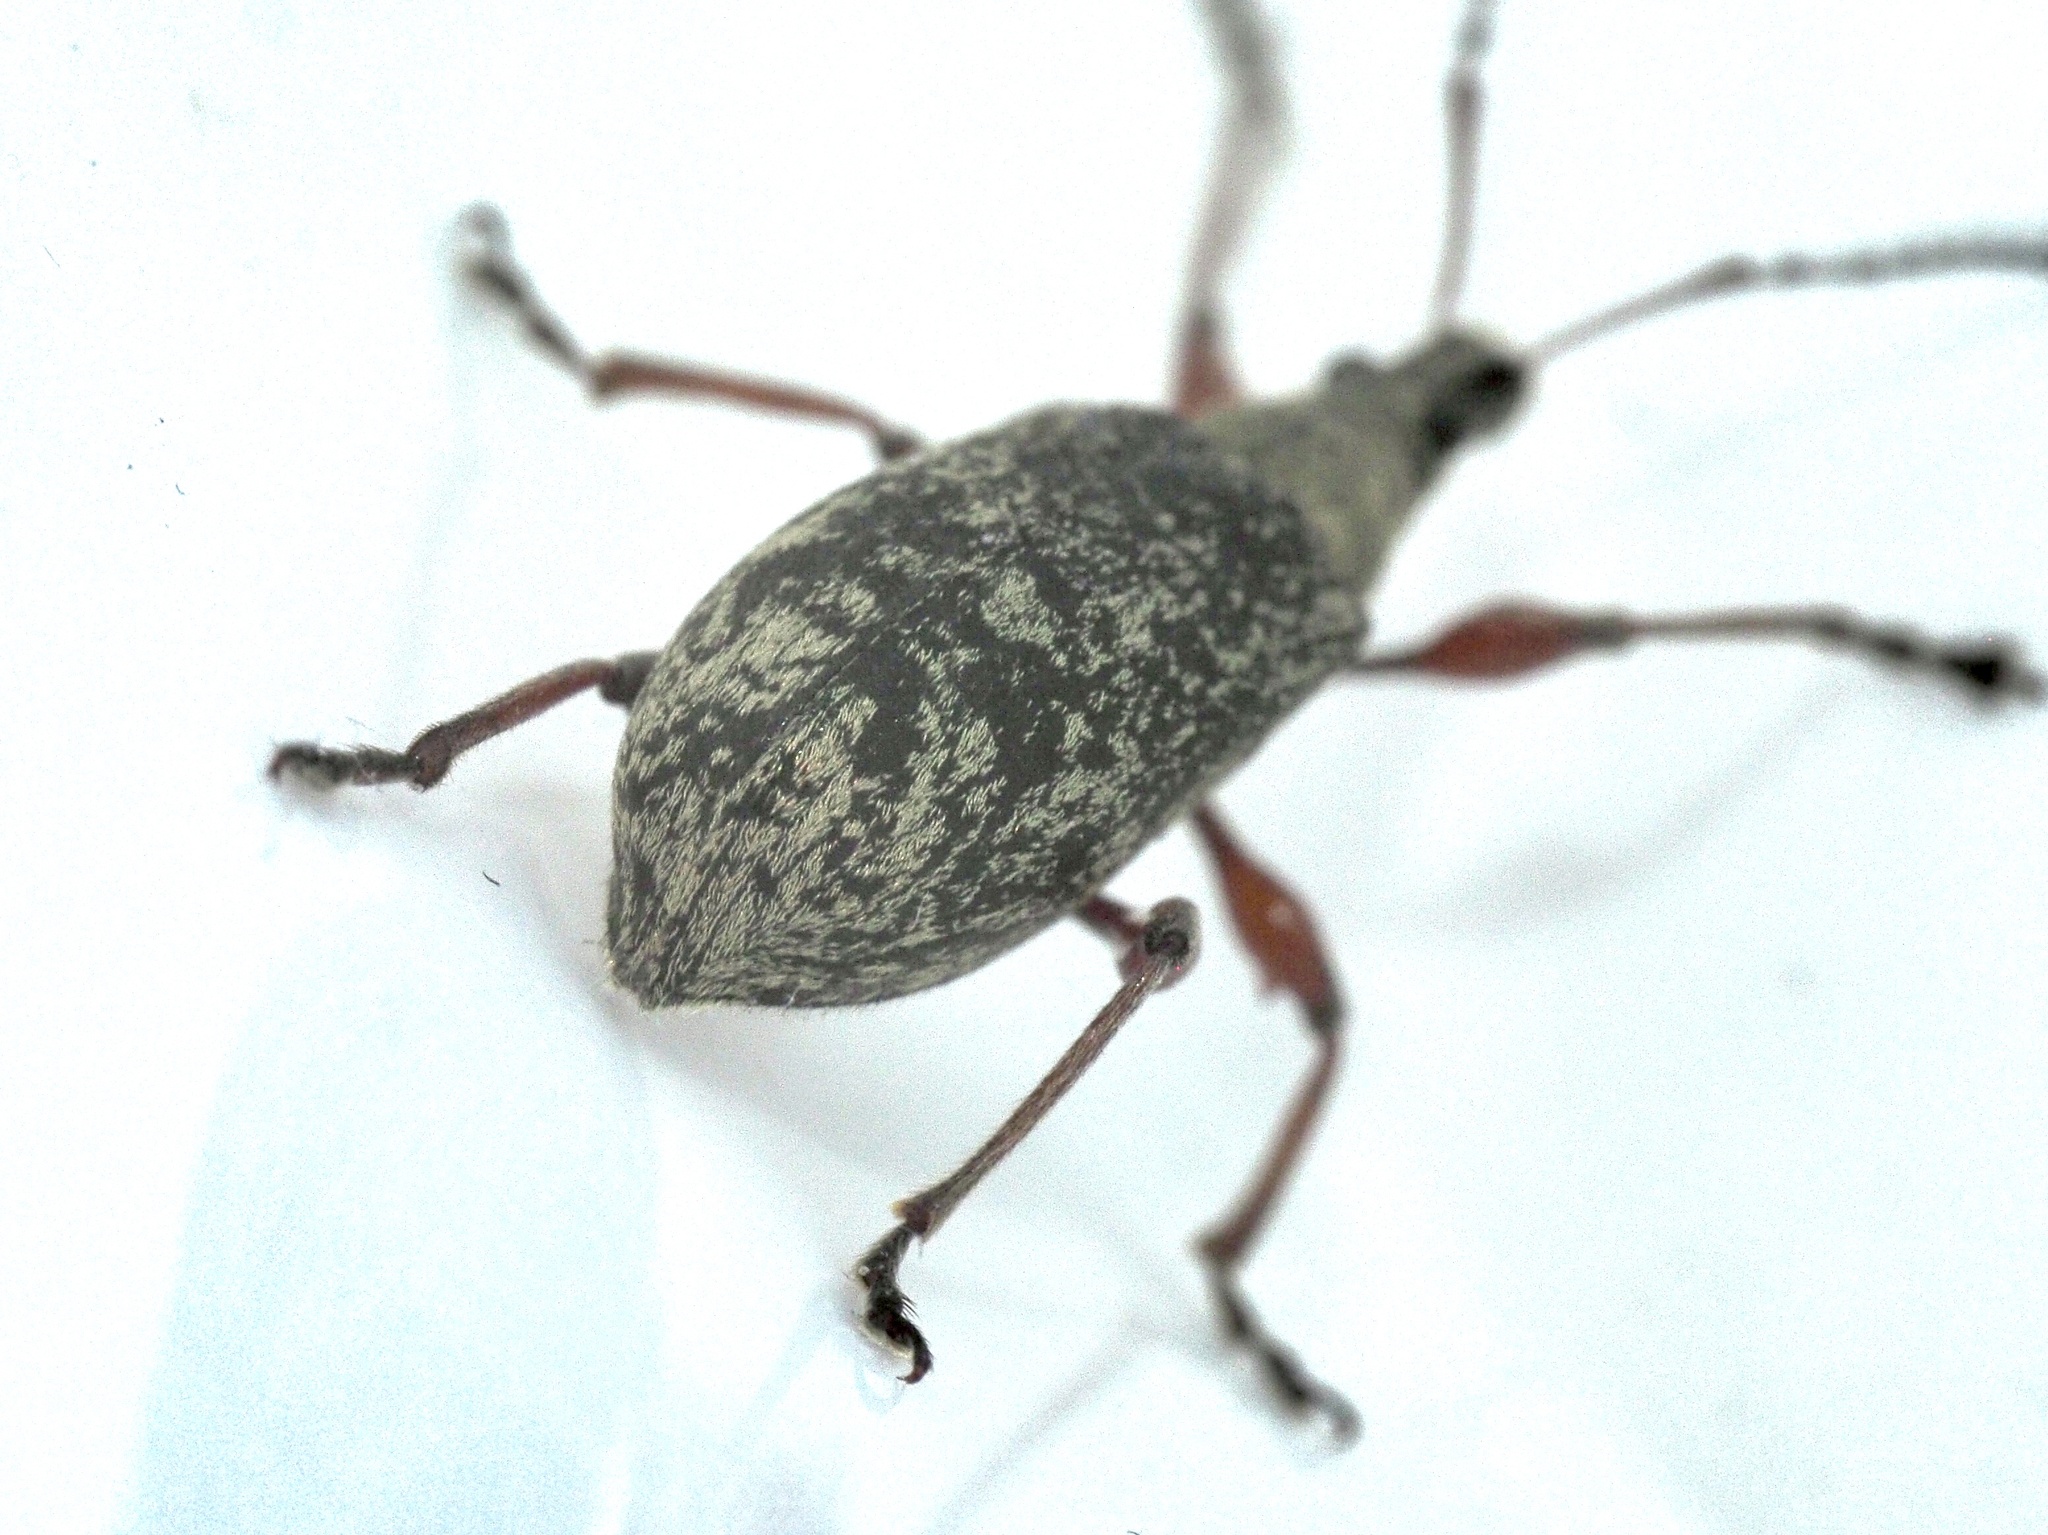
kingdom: Animalia
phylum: Arthropoda
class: Insecta
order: Coleoptera
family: Curculionidae
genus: Phyllobius
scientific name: Phyllobius glaucus
